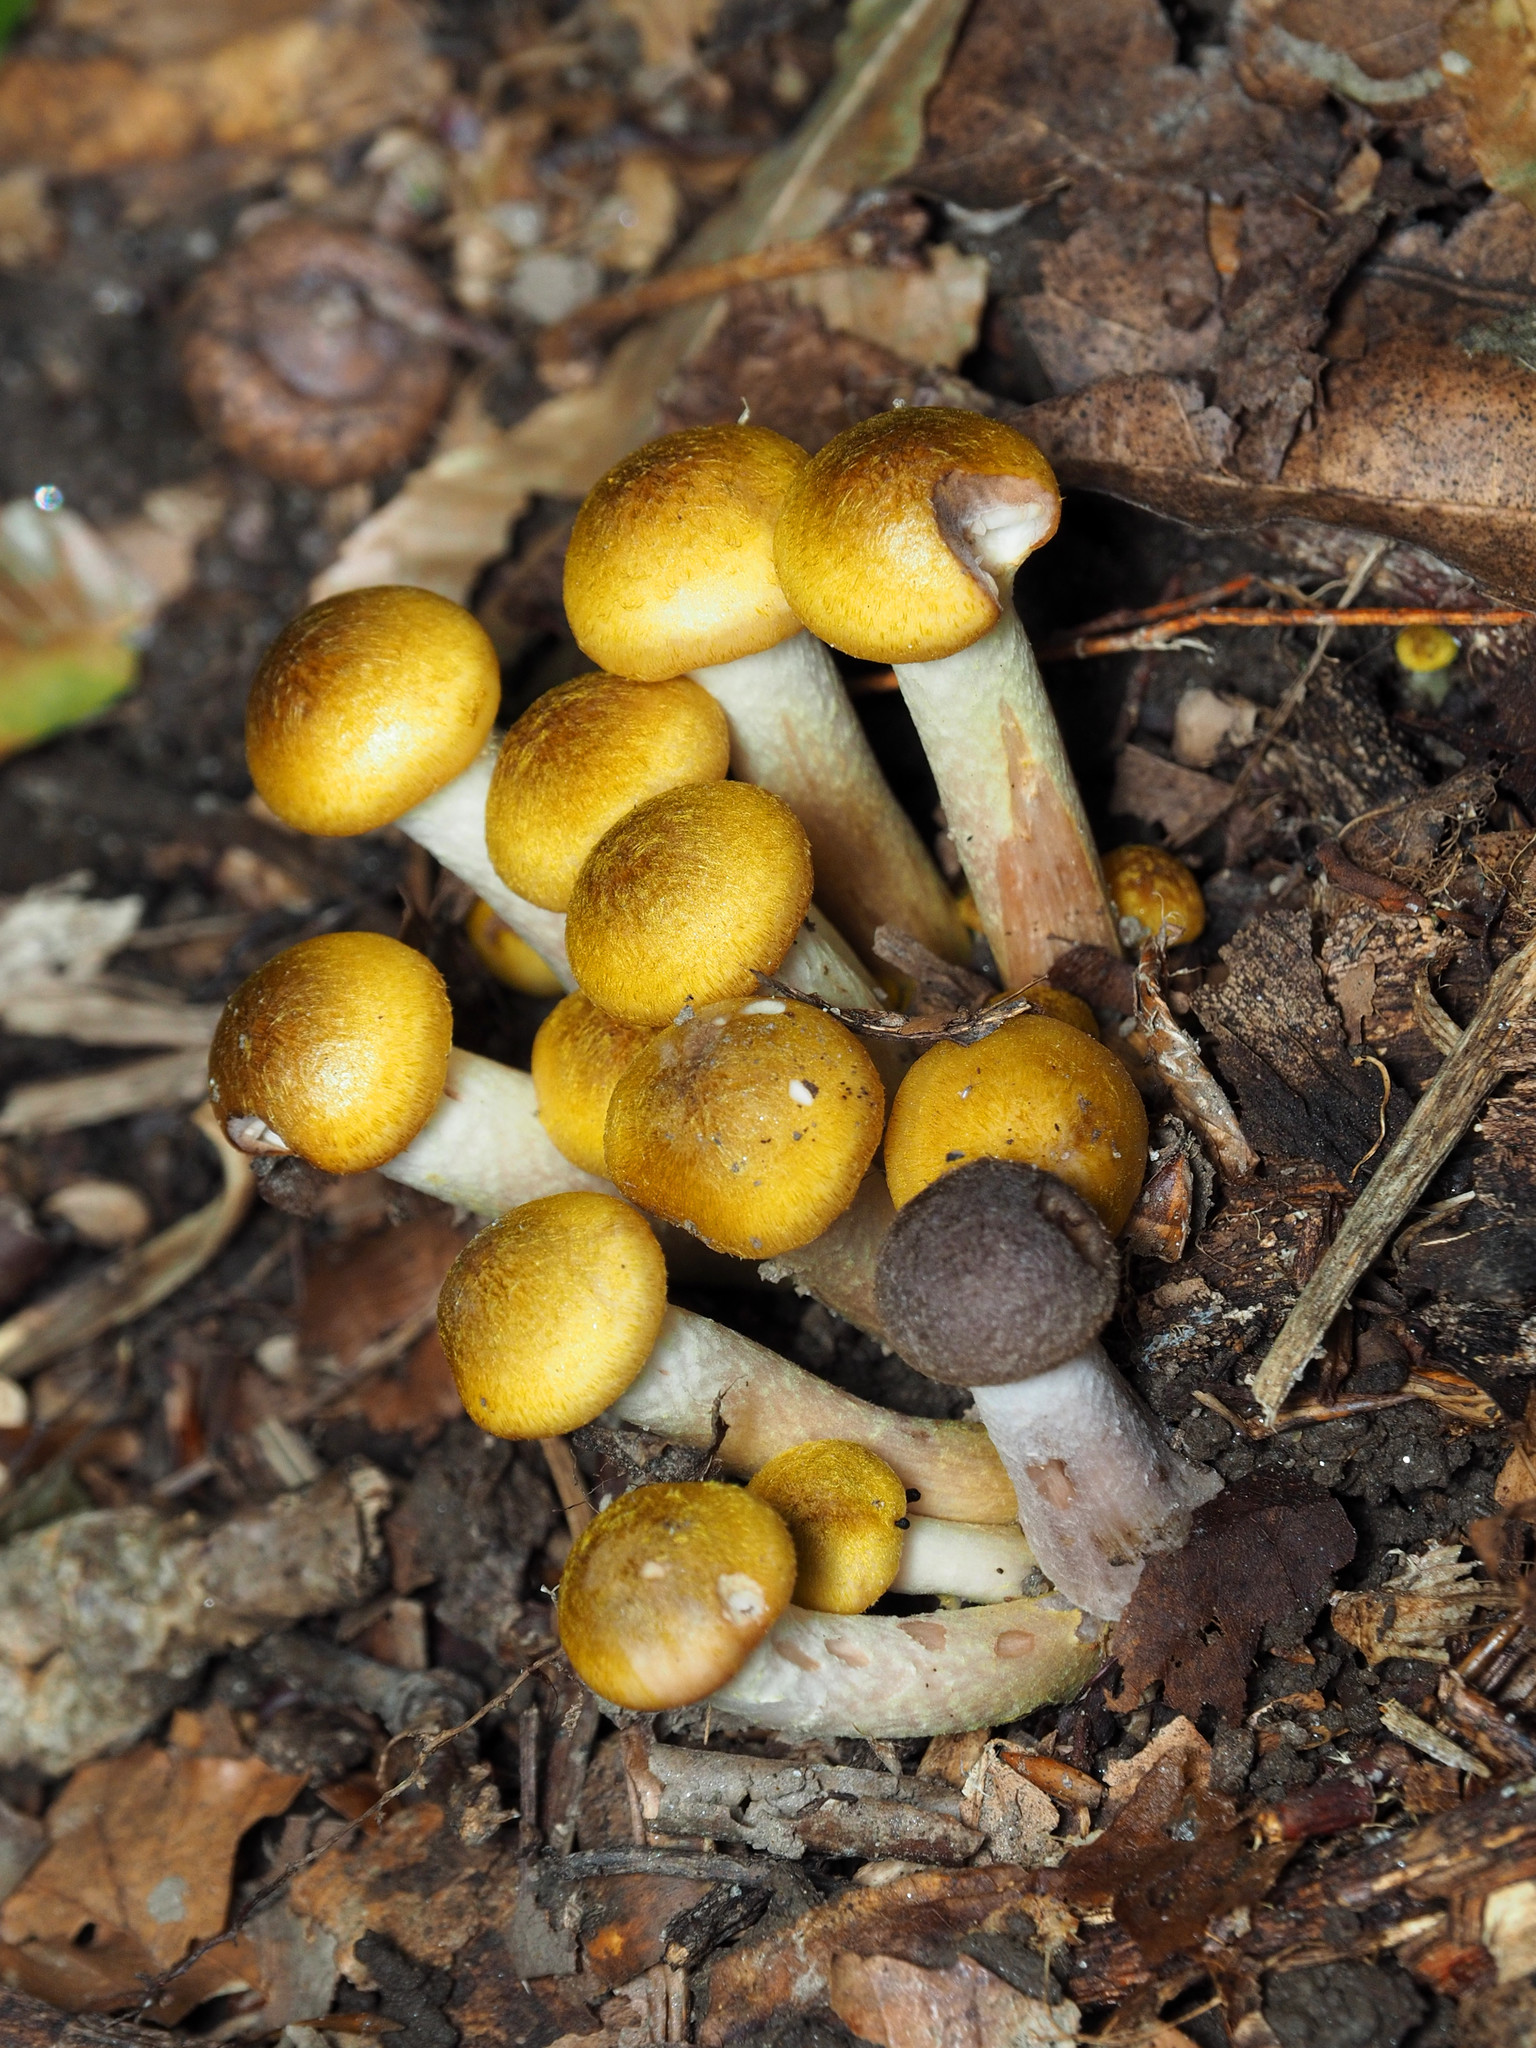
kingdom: Fungi
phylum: Basidiomycota
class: Agaricomycetes
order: Agaricales
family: Physalacriaceae
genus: Armillaria
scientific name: Armillaria mellea
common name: Honey fungus
